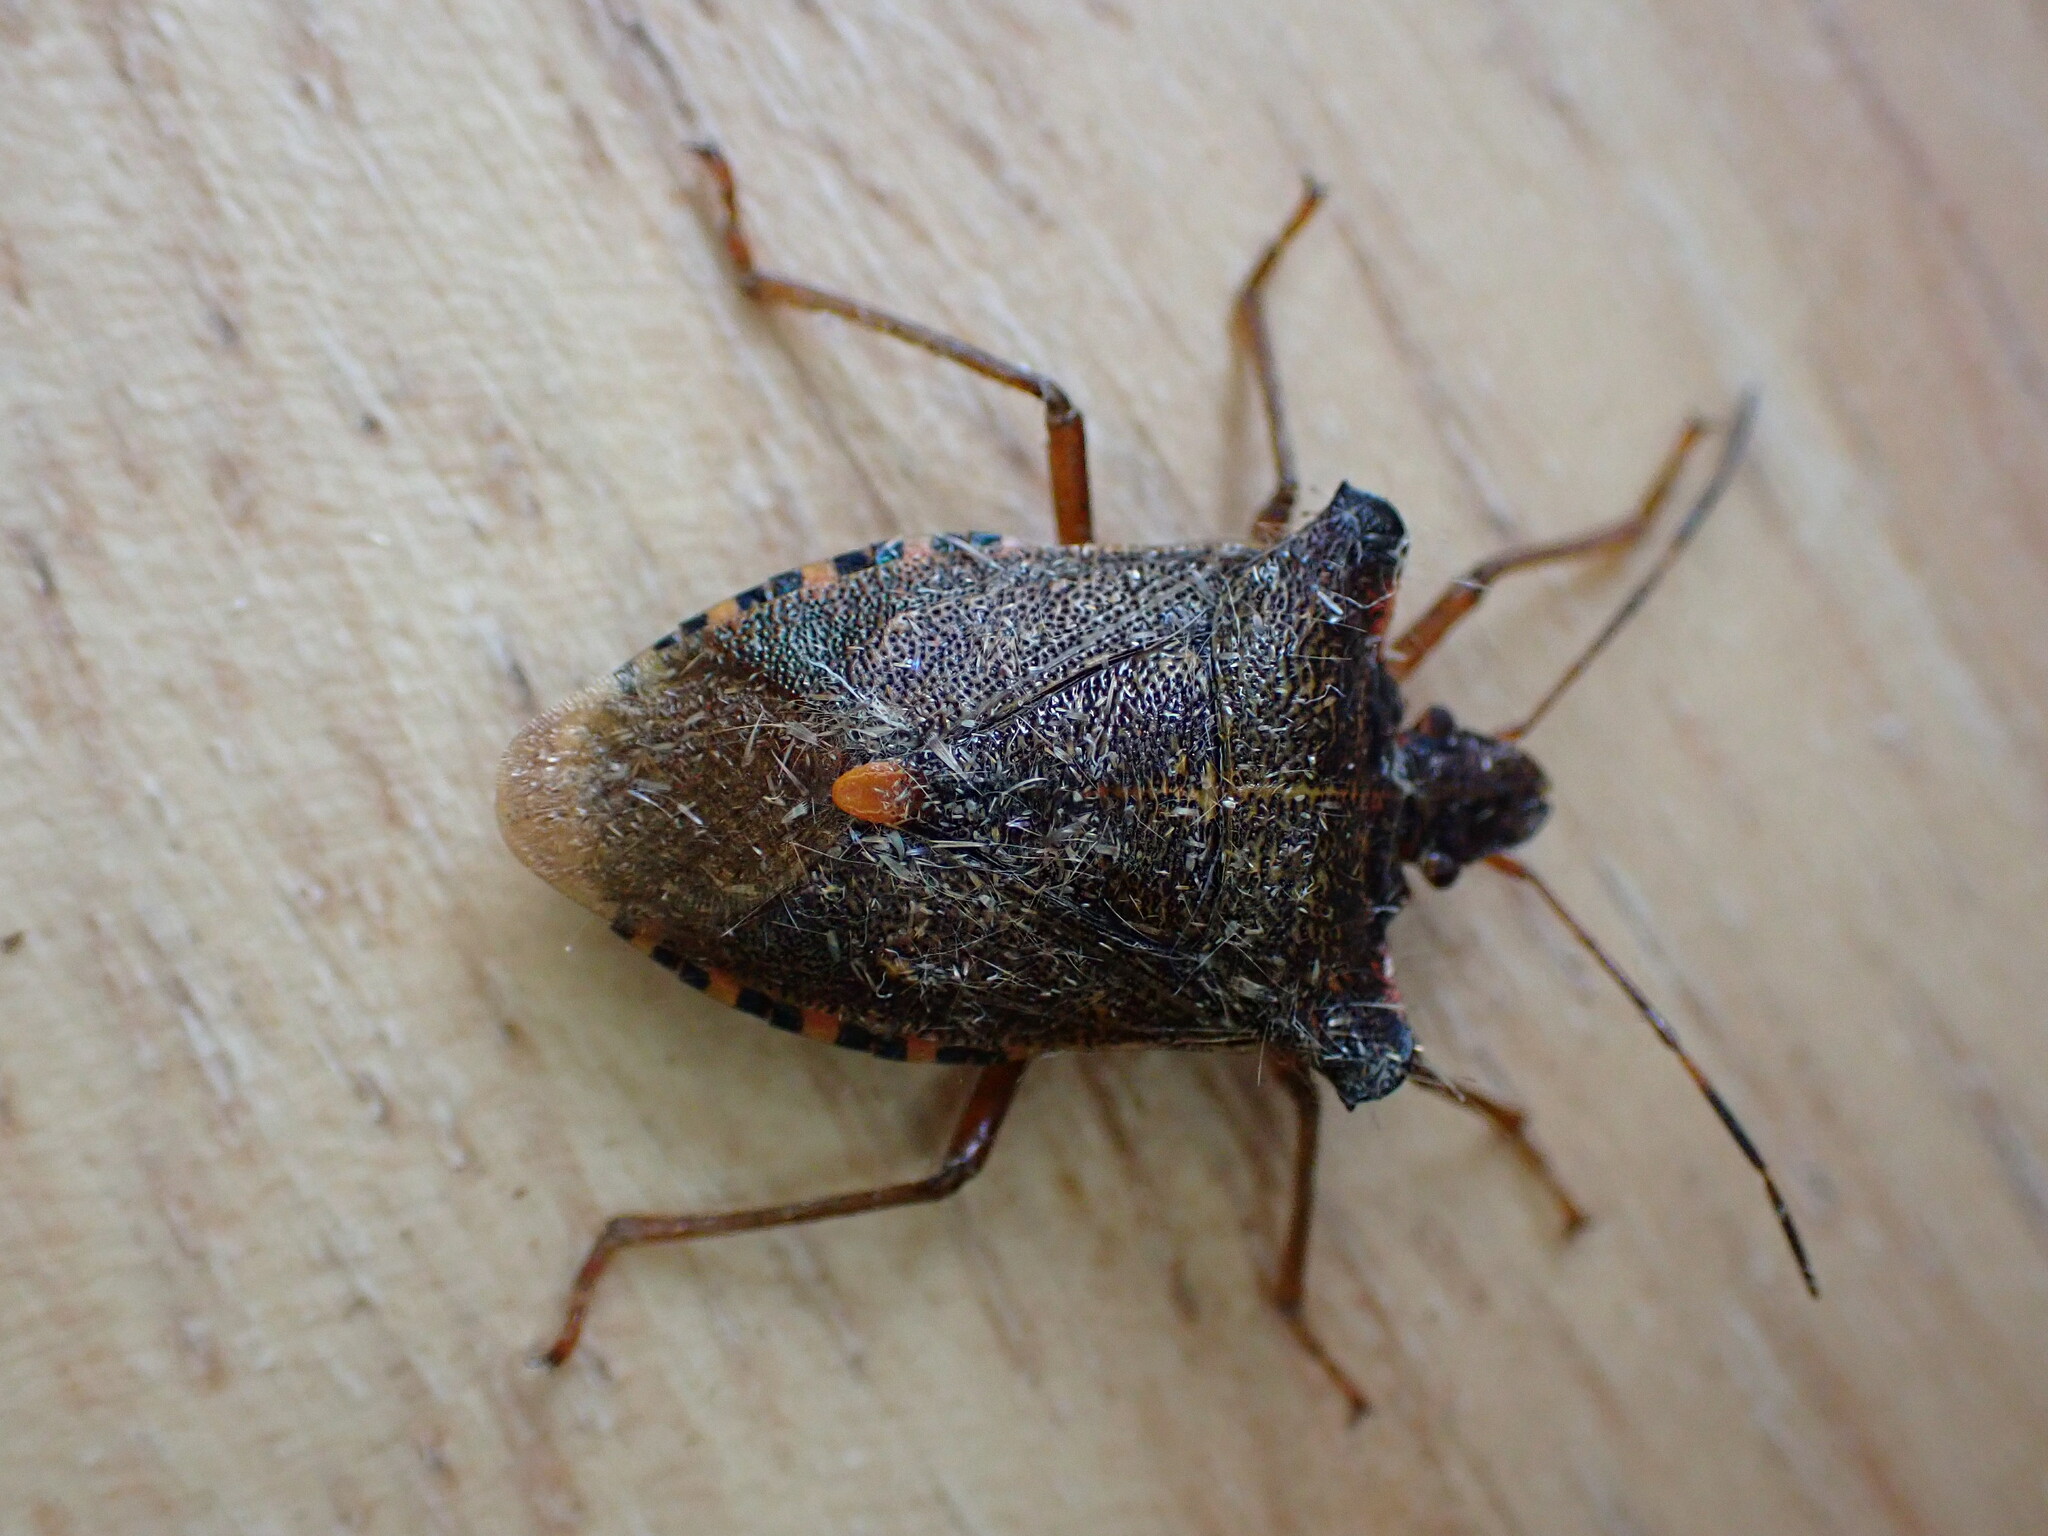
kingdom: Animalia
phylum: Arthropoda
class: Insecta
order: Hemiptera
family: Pentatomidae
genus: Pentatoma
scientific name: Pentatoma rufipes
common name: Forest bug
